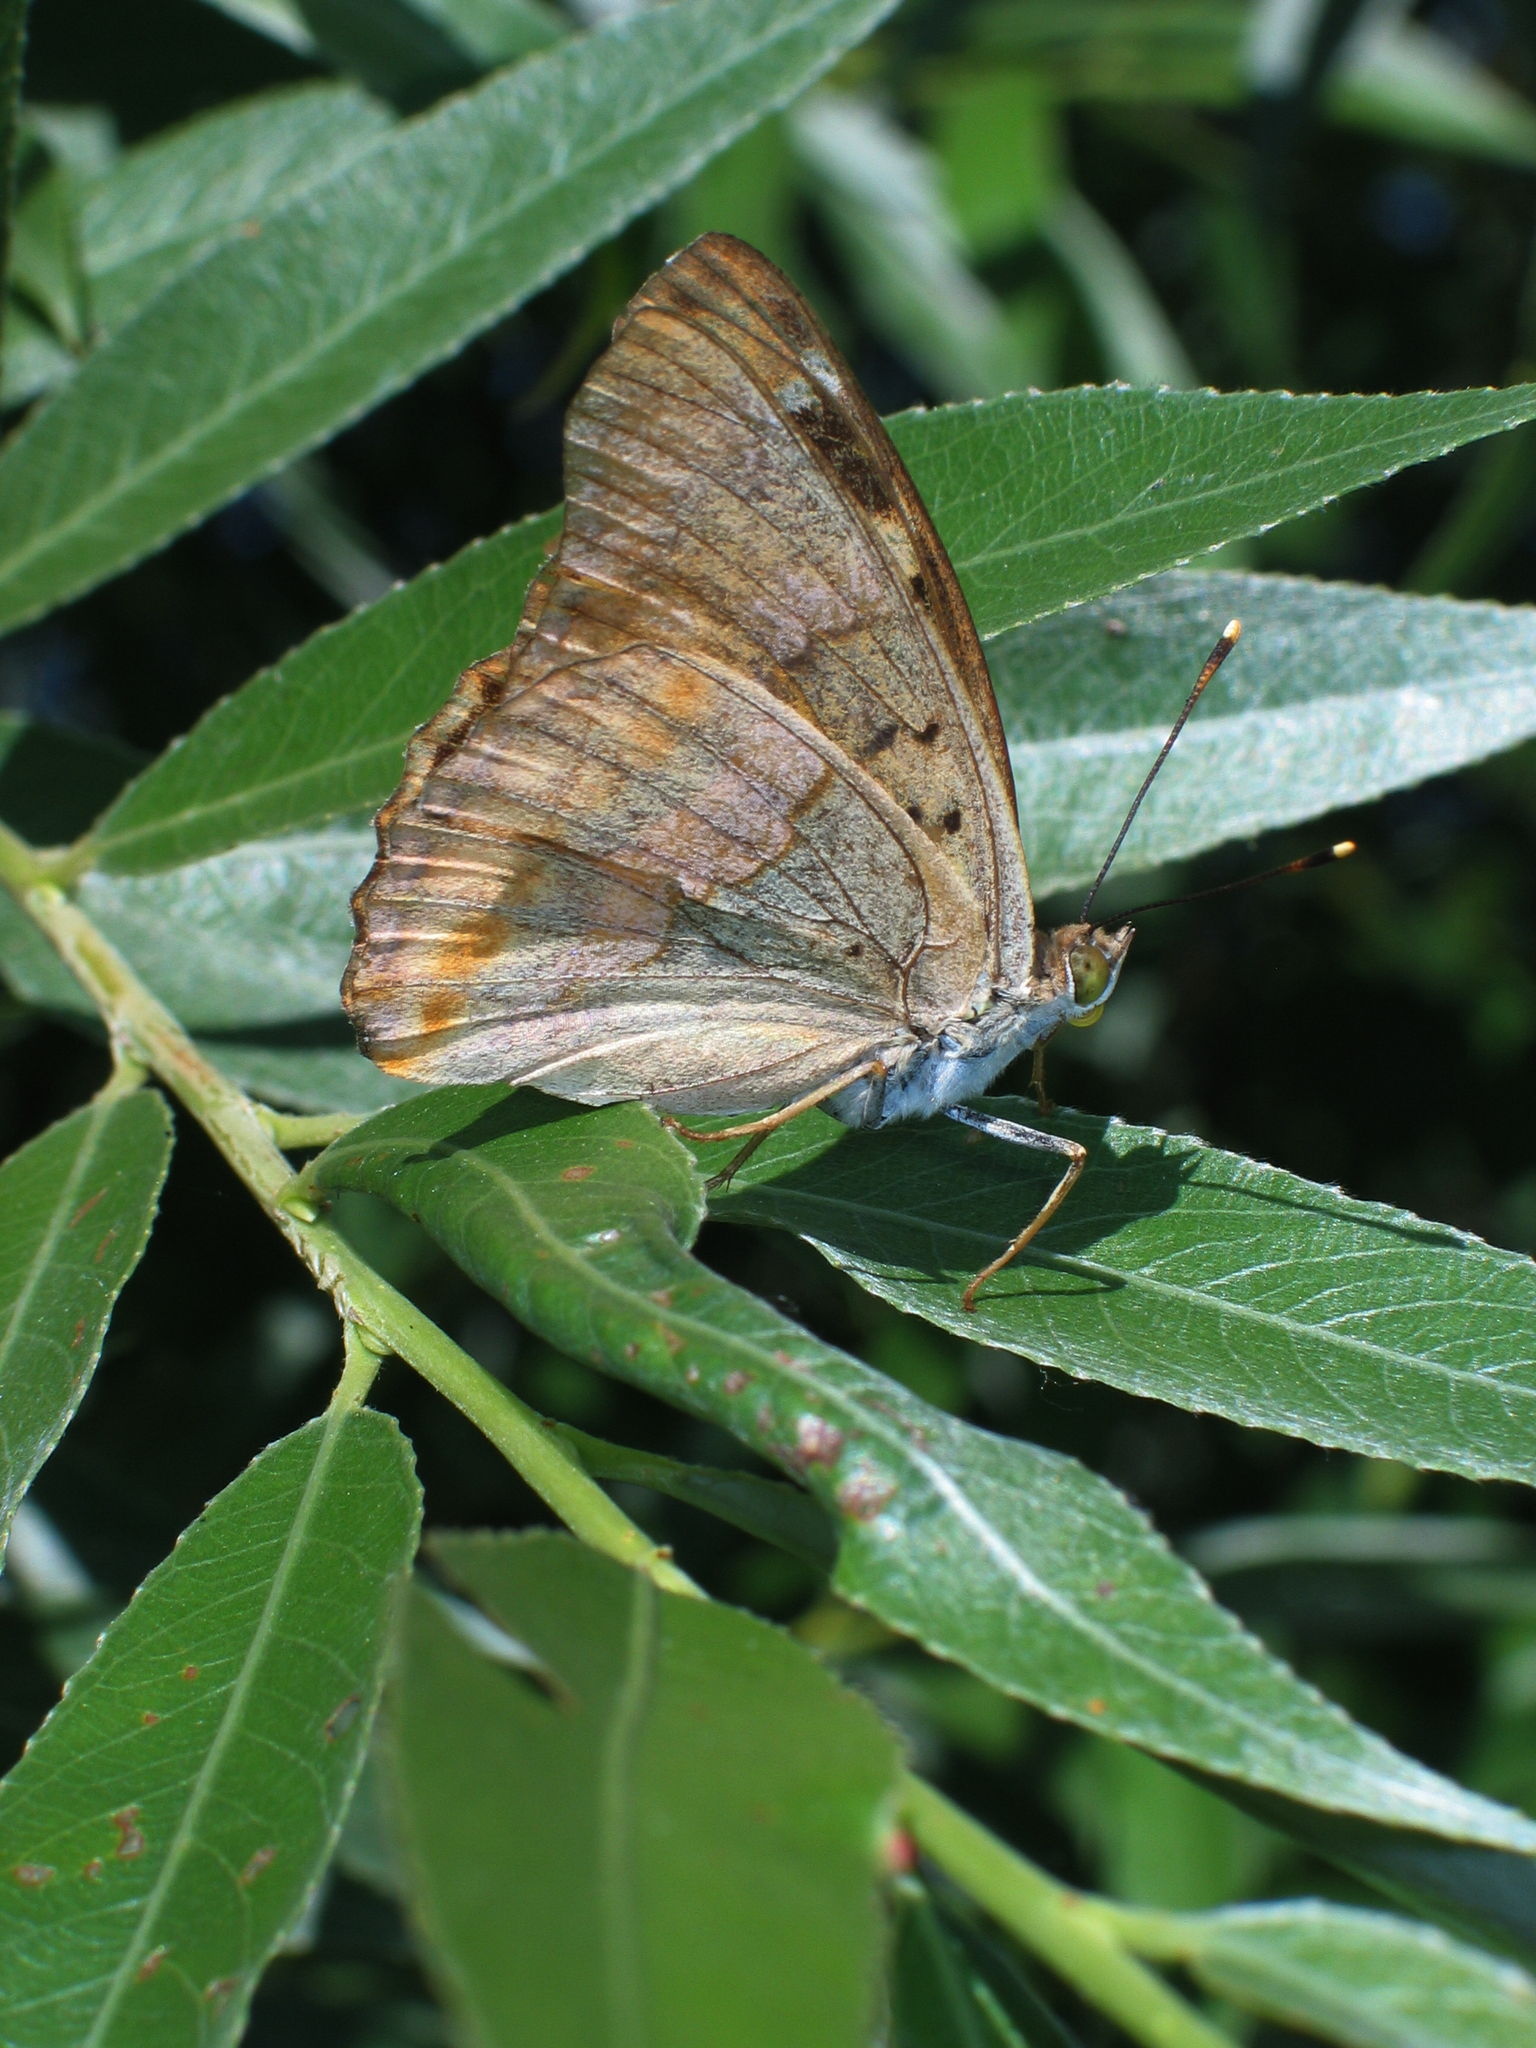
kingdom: Plantae
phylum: Tracheophyta
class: Magnoliopsida
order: Malpighiales
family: Salicaceae
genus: Salix
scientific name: Salix alba
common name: White willow
